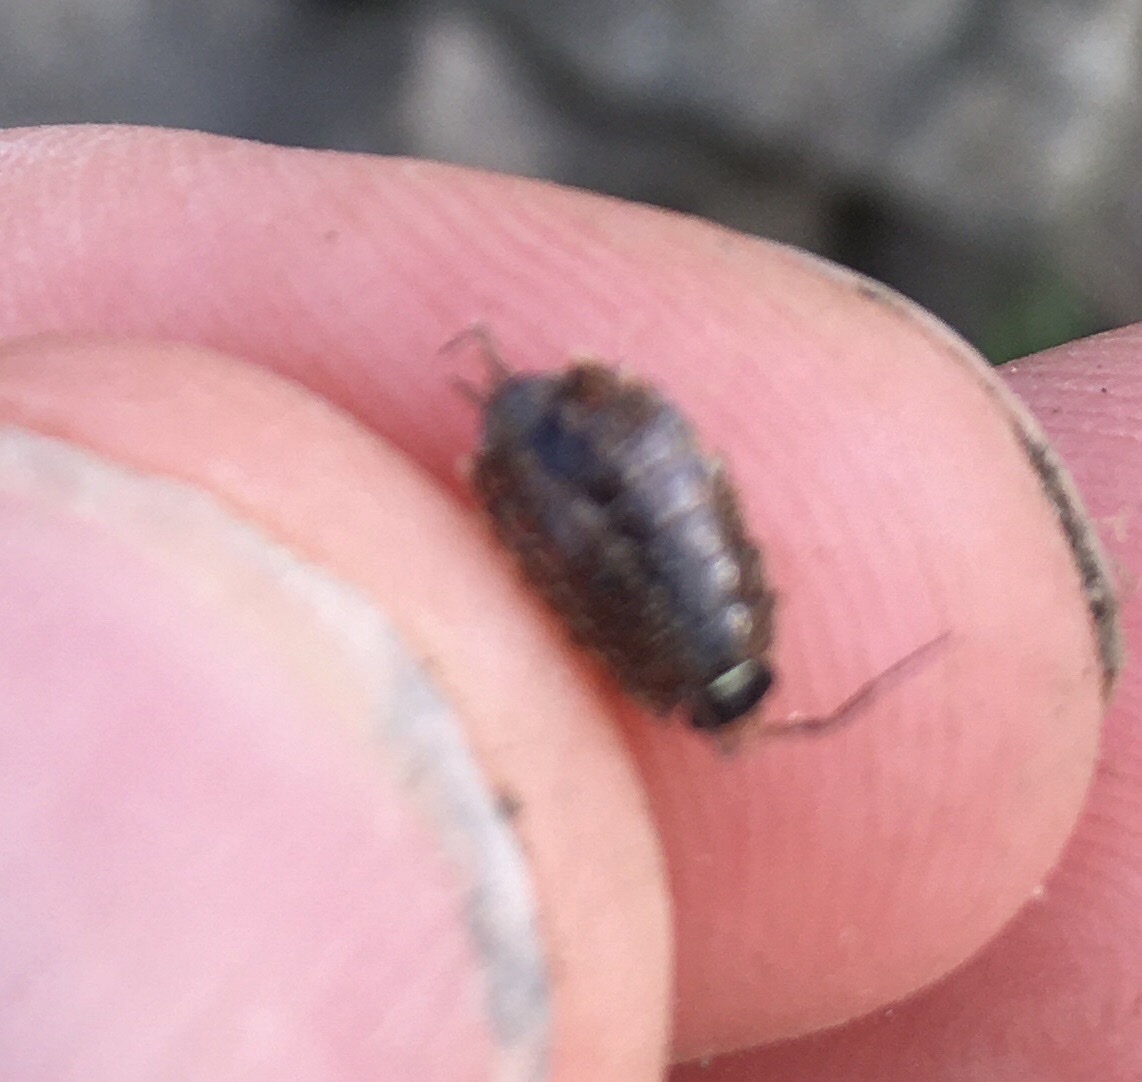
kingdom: Animalia
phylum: Arthropoda
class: Malacostraca
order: Isopoda
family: Philosciidae
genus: Philoscia
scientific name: Philoscia muscorum
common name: Common striped woodlouse
